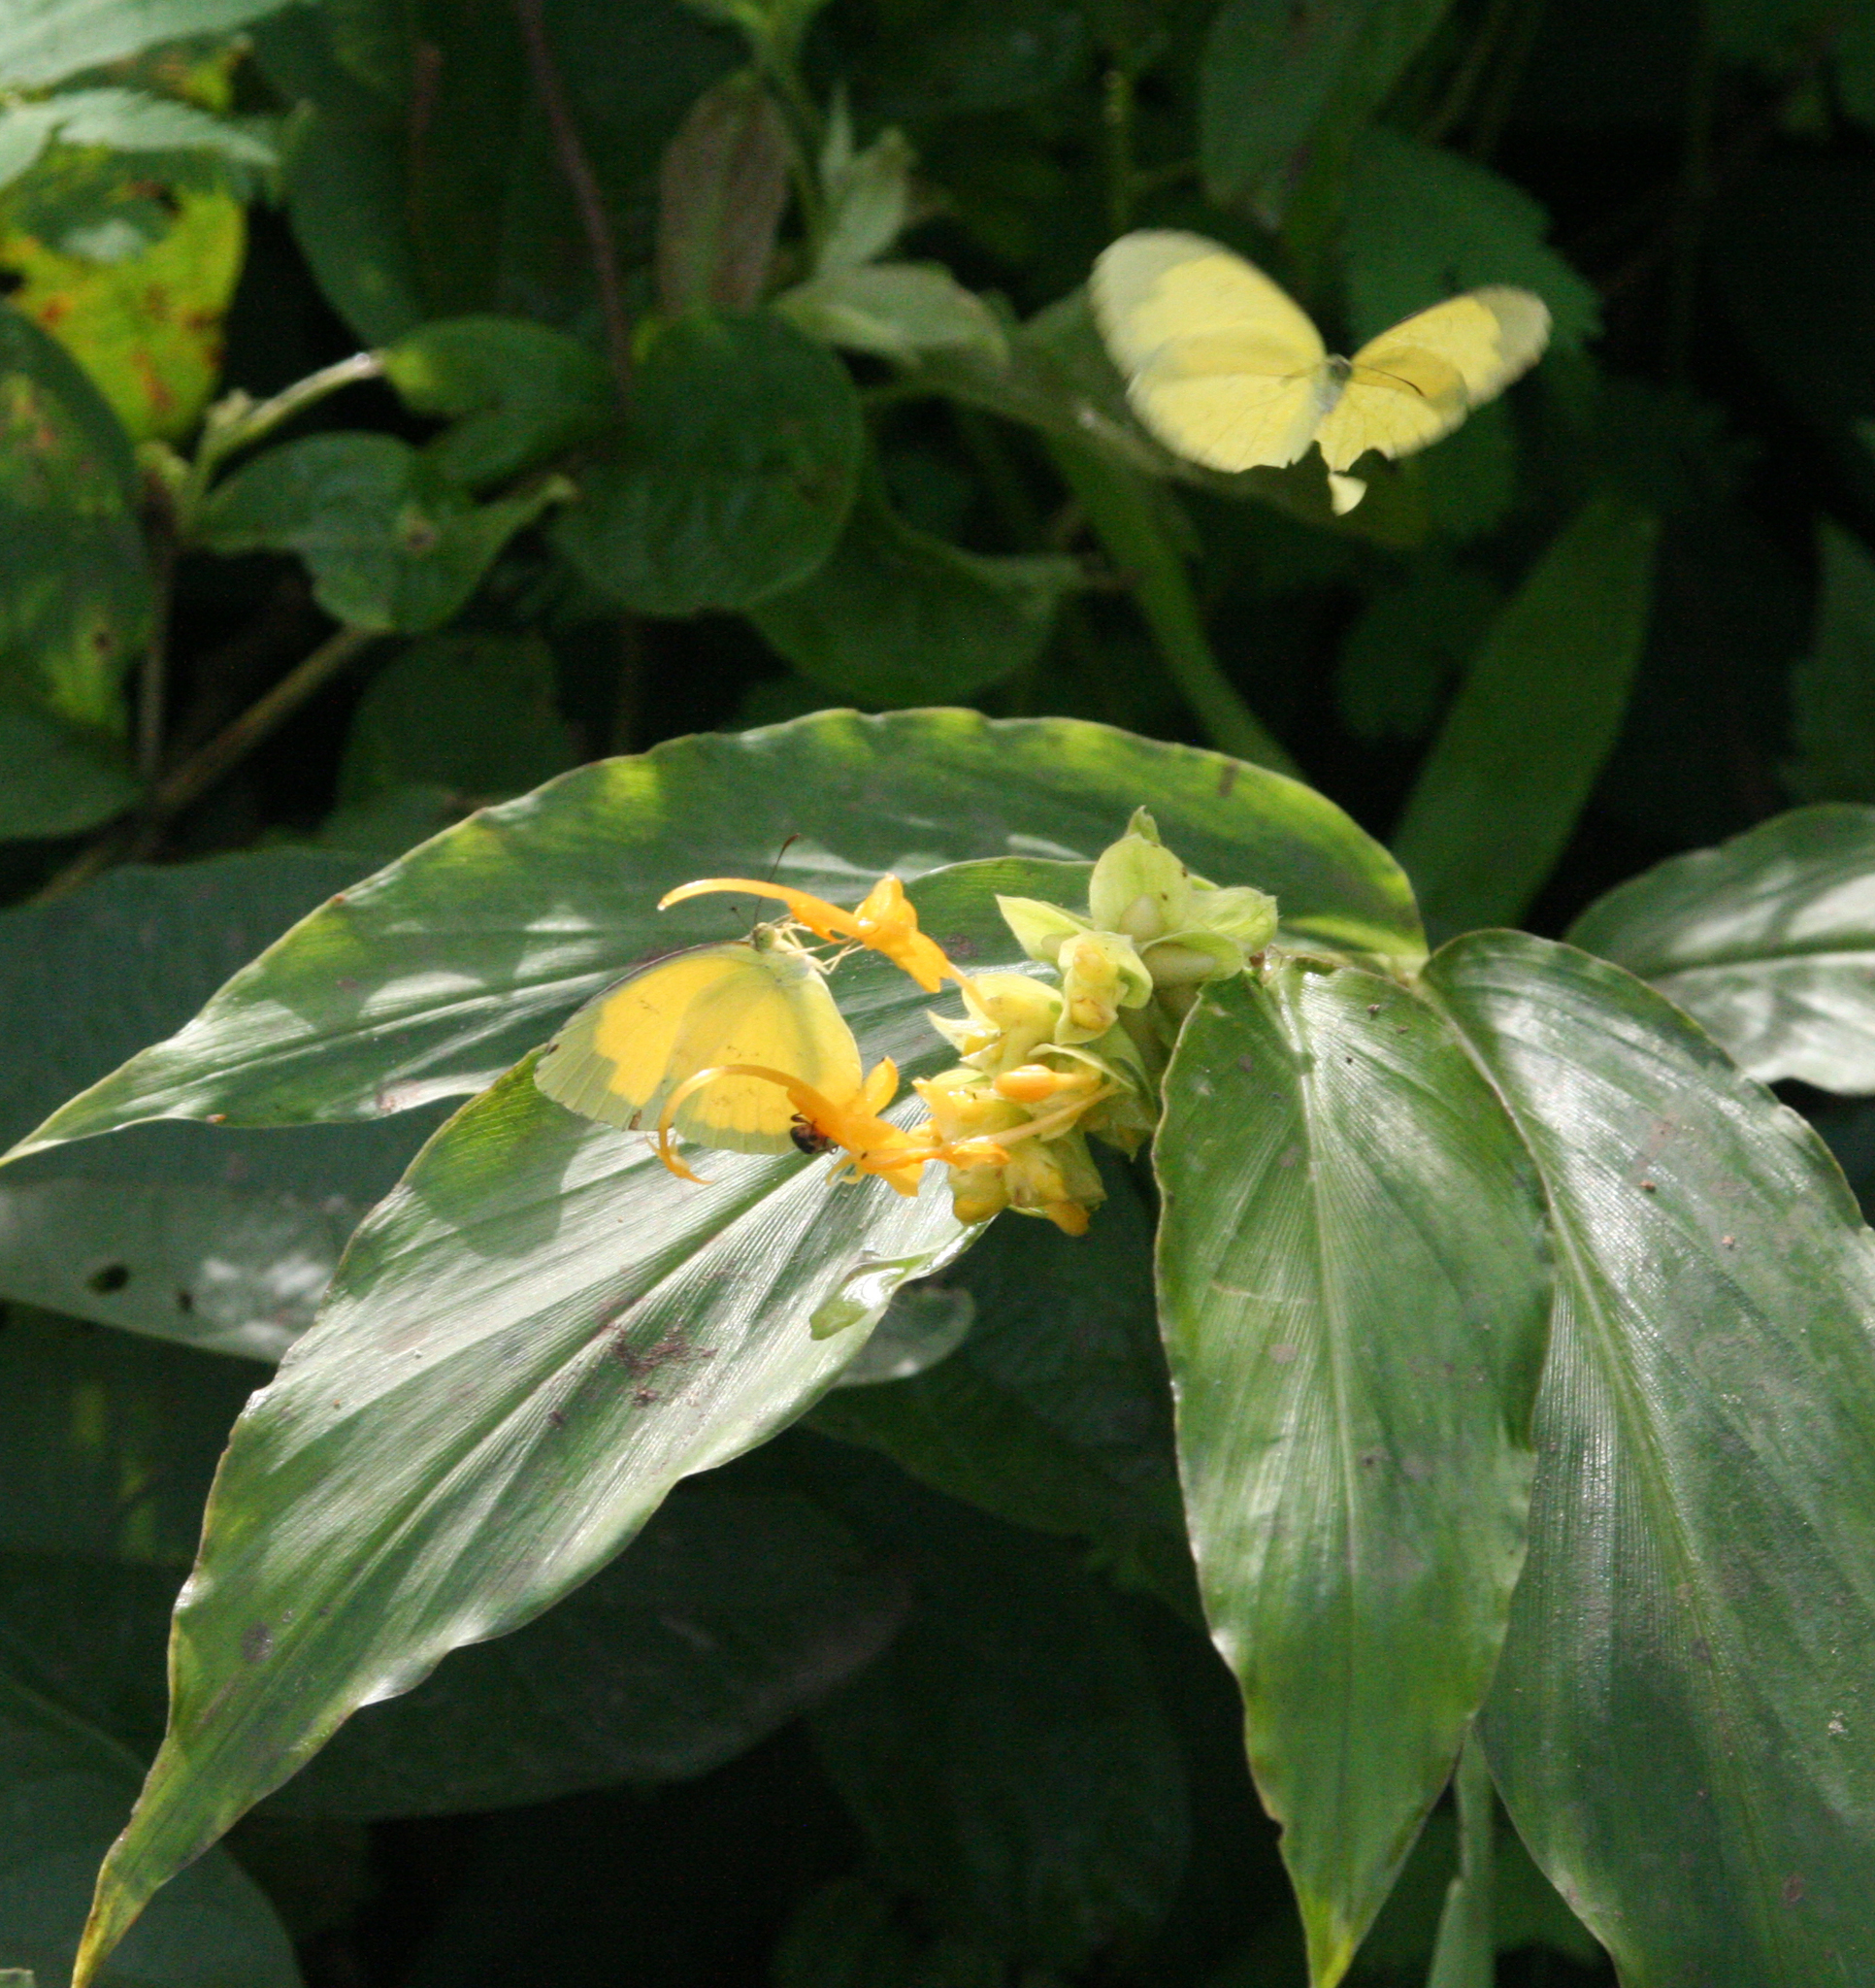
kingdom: Animalia
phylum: Arthropoda
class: Insecta
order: Lepidoptera
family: Pieridae
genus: Eurema
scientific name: Eurema hecabe
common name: Pale grass yellow
